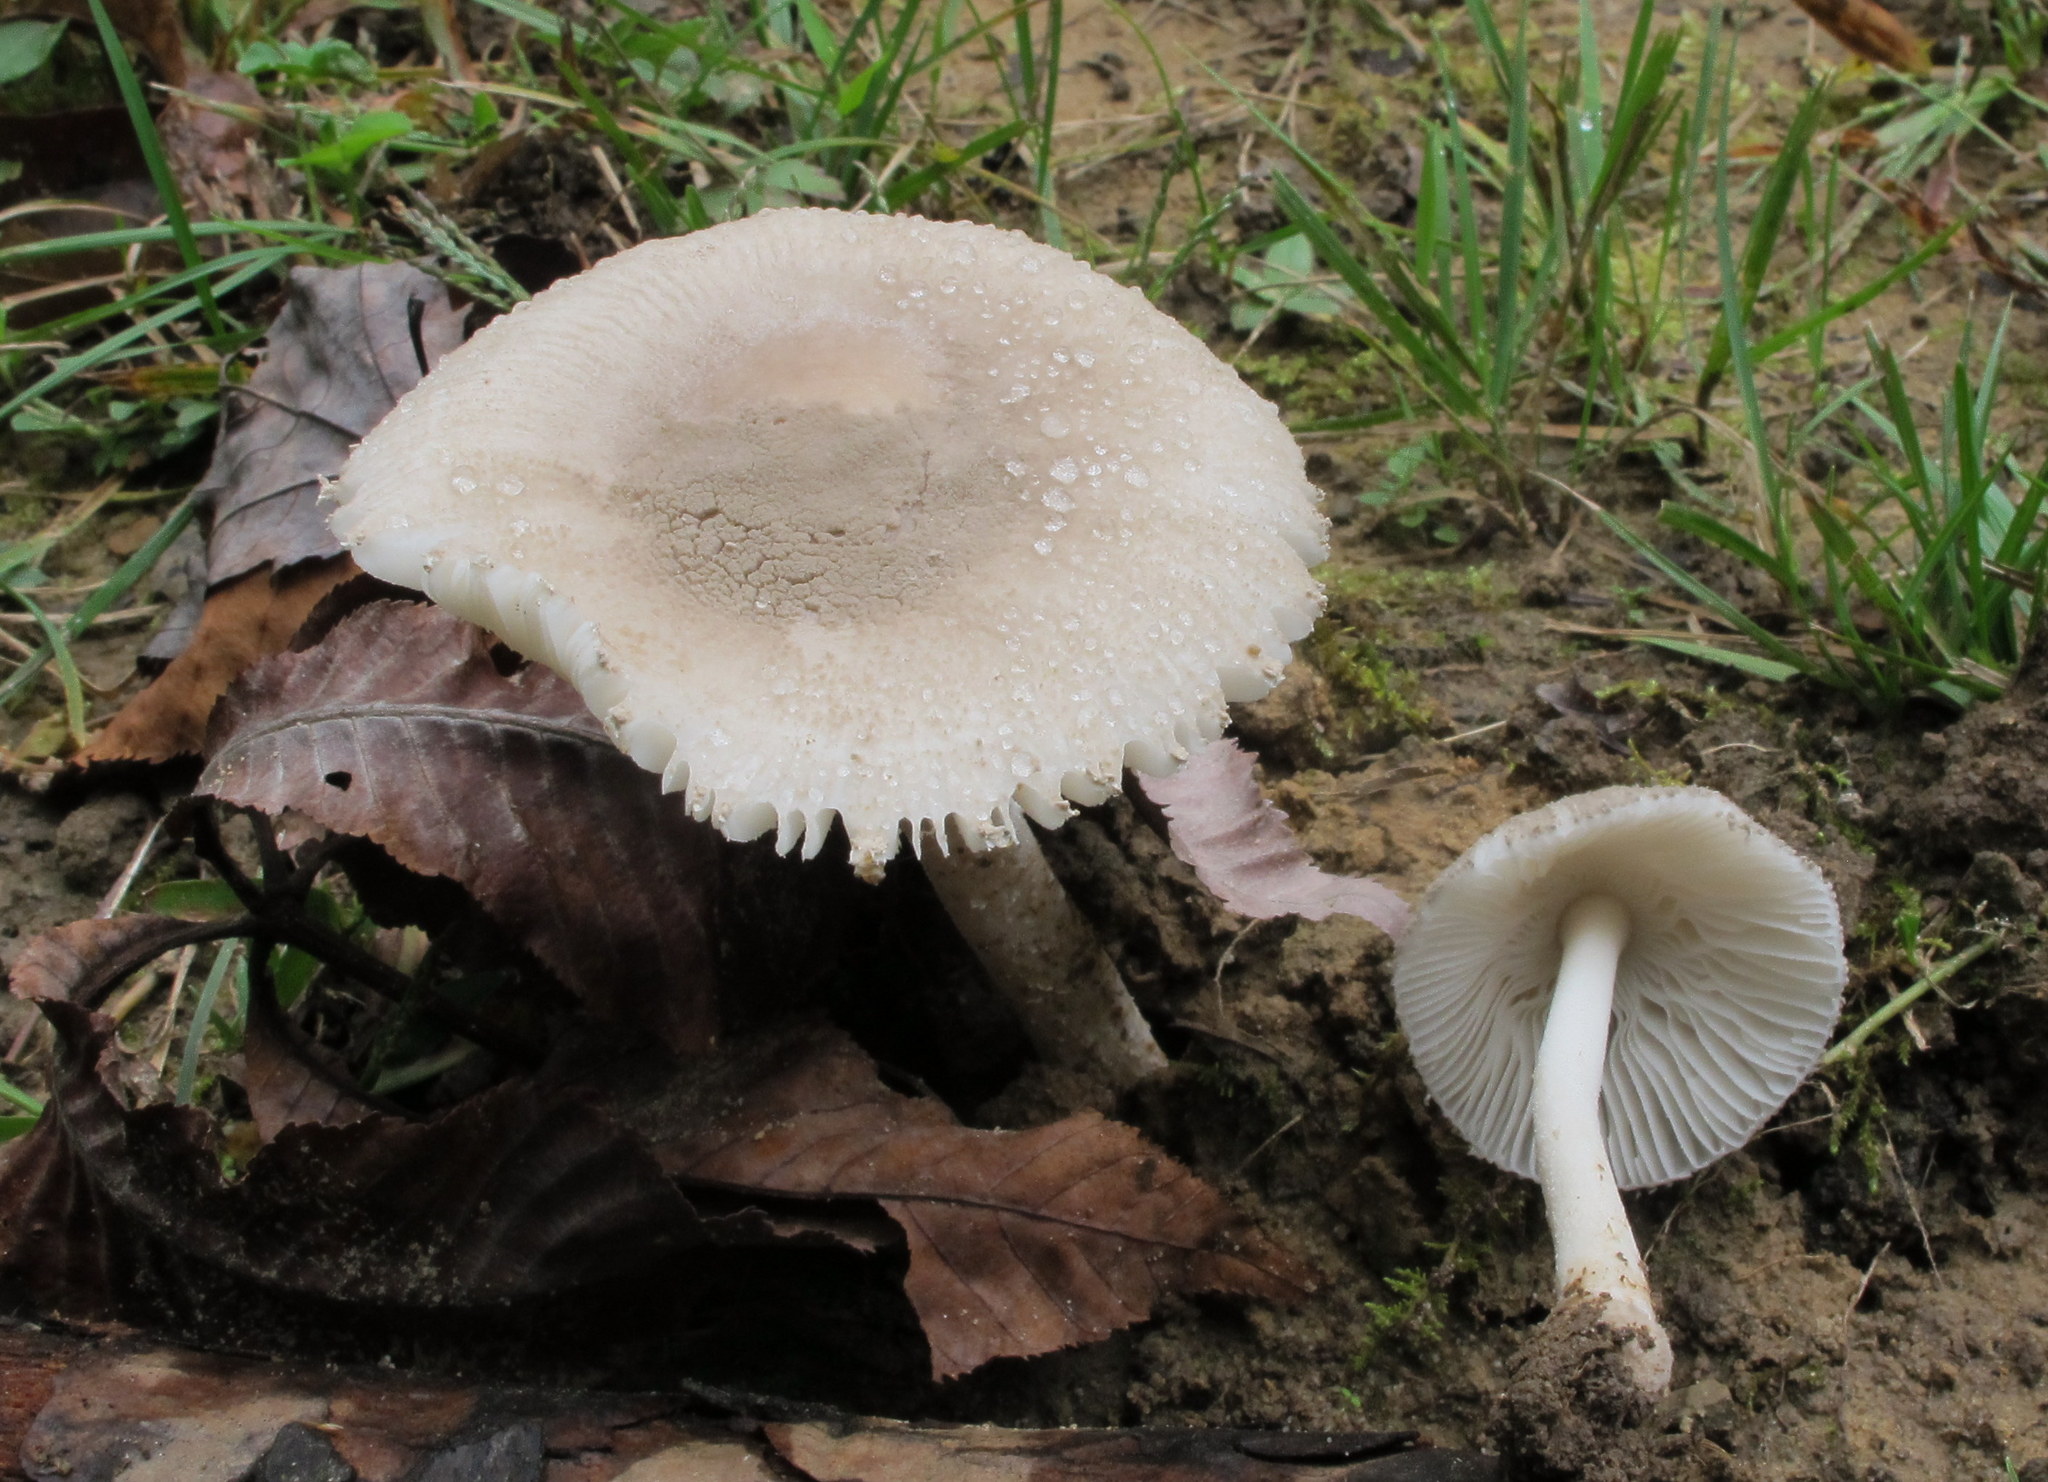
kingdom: Fungi
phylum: Basidiomycota
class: Agaricomycetes
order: Agaricales
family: Amanitaceae
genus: Amanita
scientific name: Amanita farinosa
